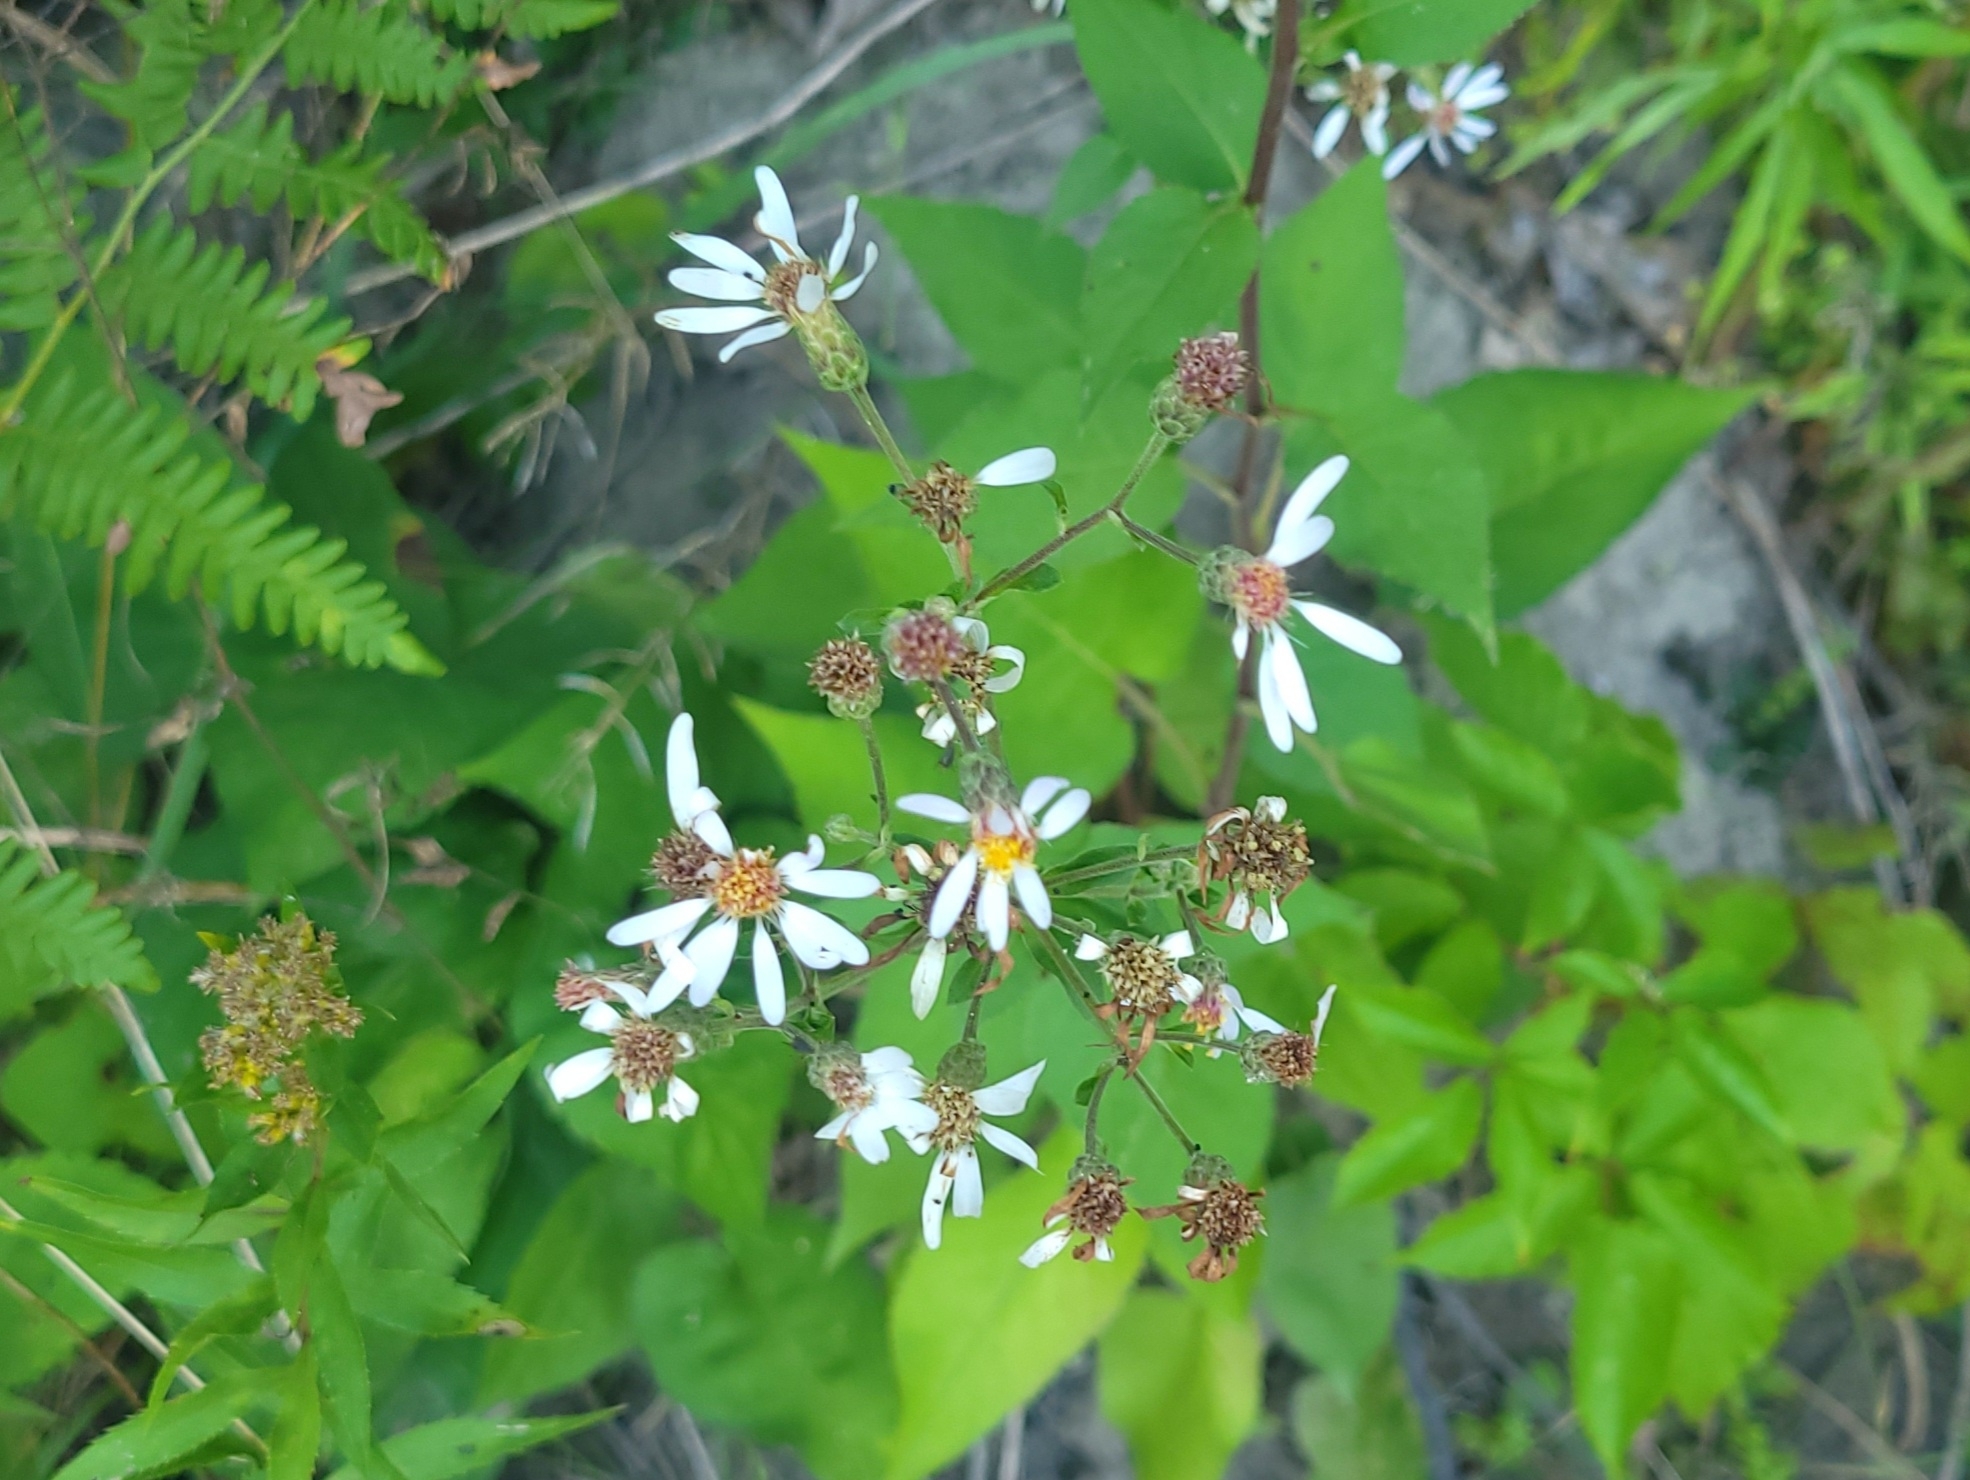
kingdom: Plantae
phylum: Tracheophyta
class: Magnoliopsida
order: Asterales
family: Asteraceae
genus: Eurybia
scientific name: Eurybia macrophylla
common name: Big-leaved aster
